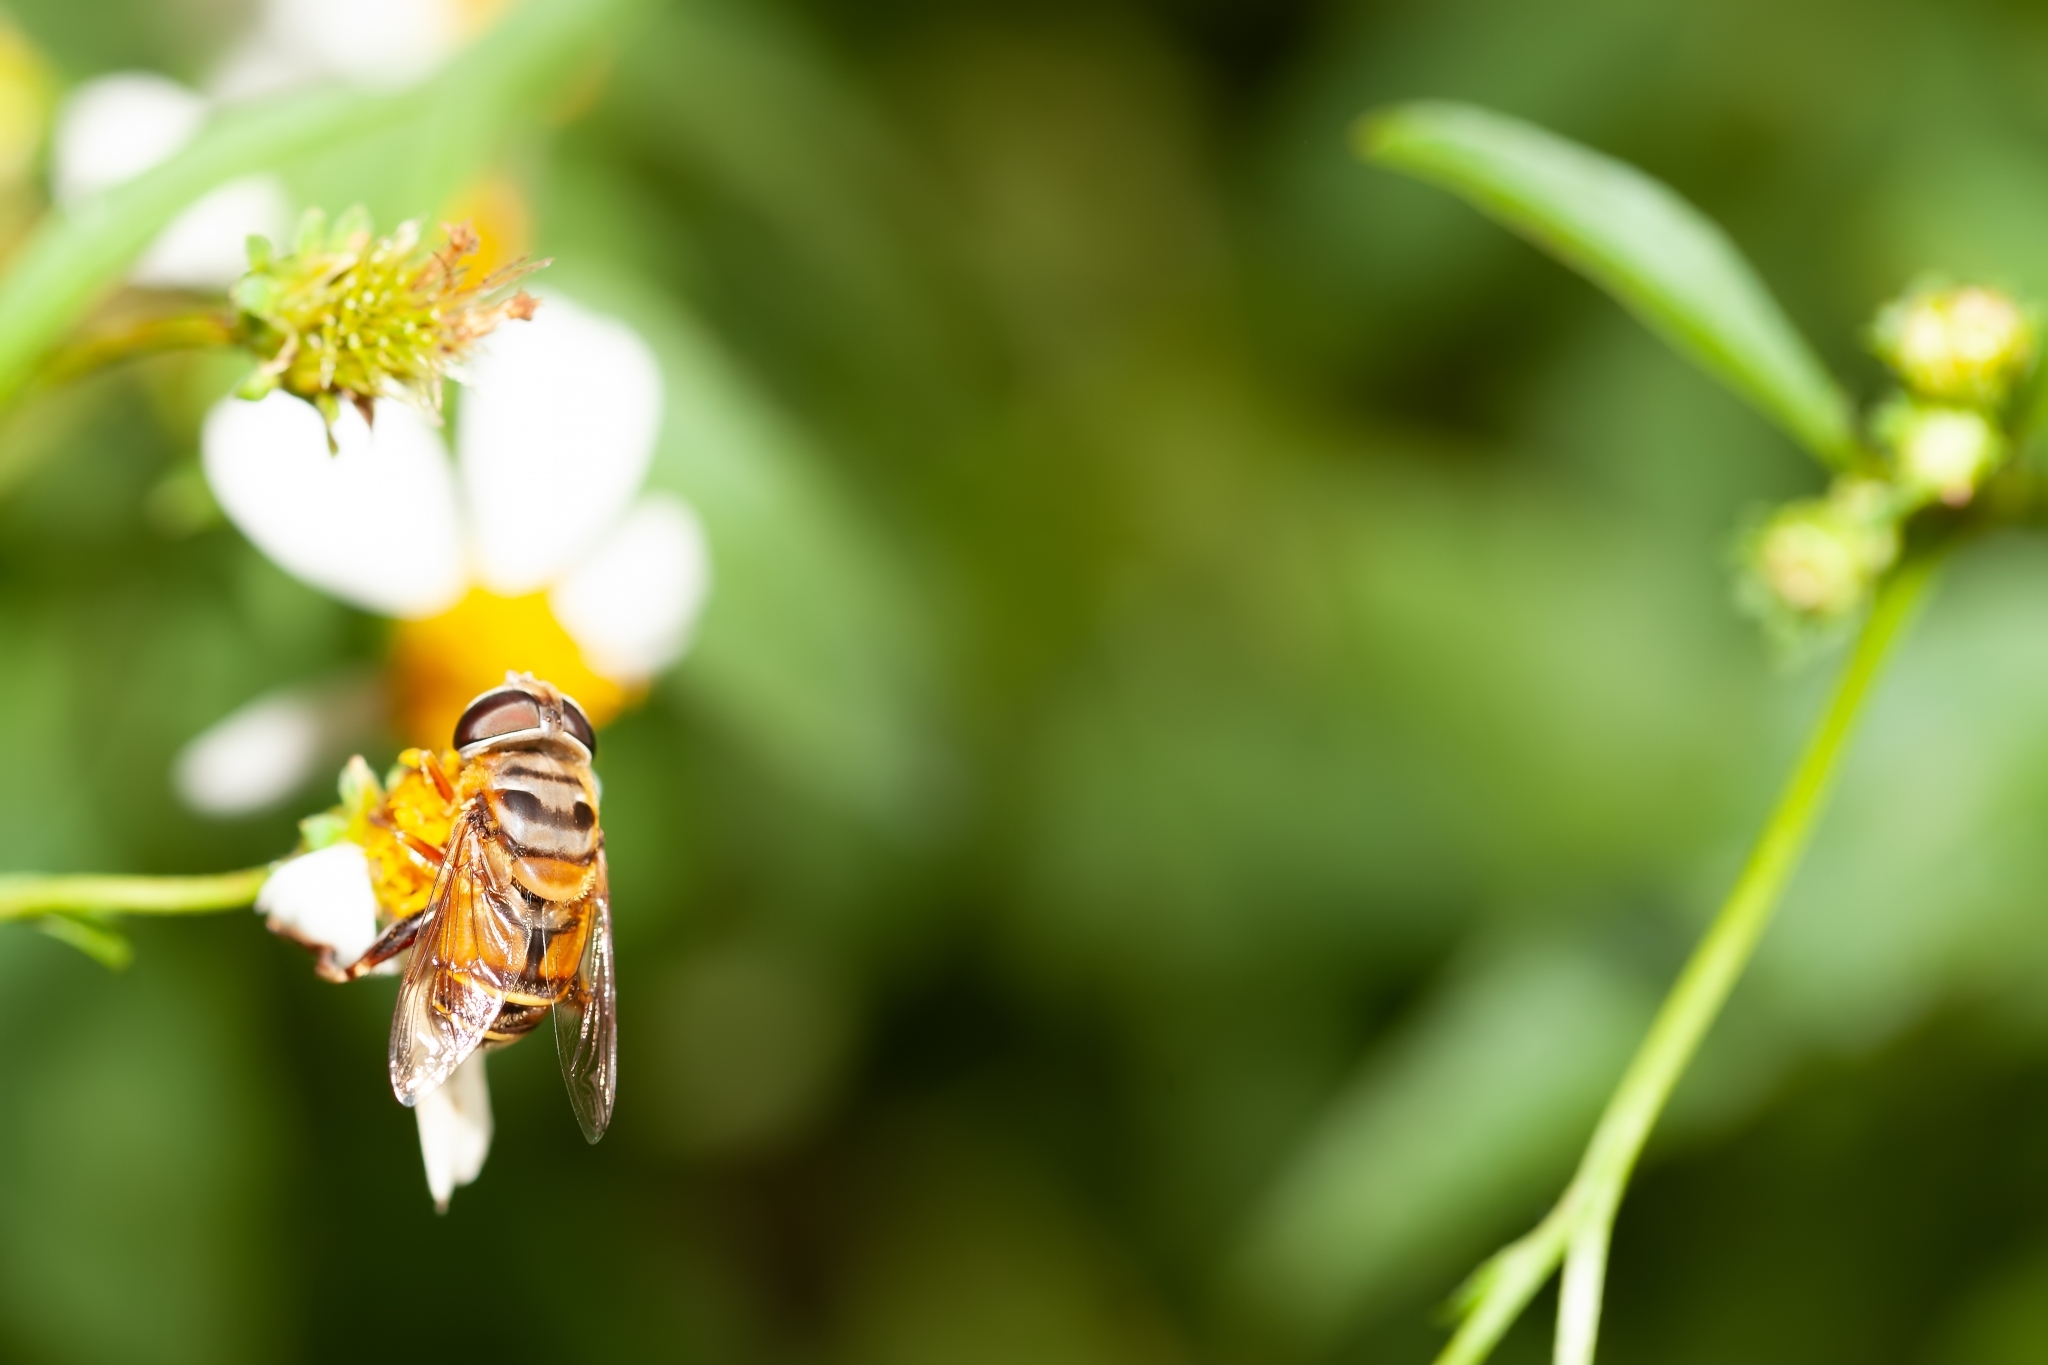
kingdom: Animalia
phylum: Arthropoda
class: Insecta
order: Diptera
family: Syrphidae
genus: Palpada
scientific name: Palpada vinetorum
